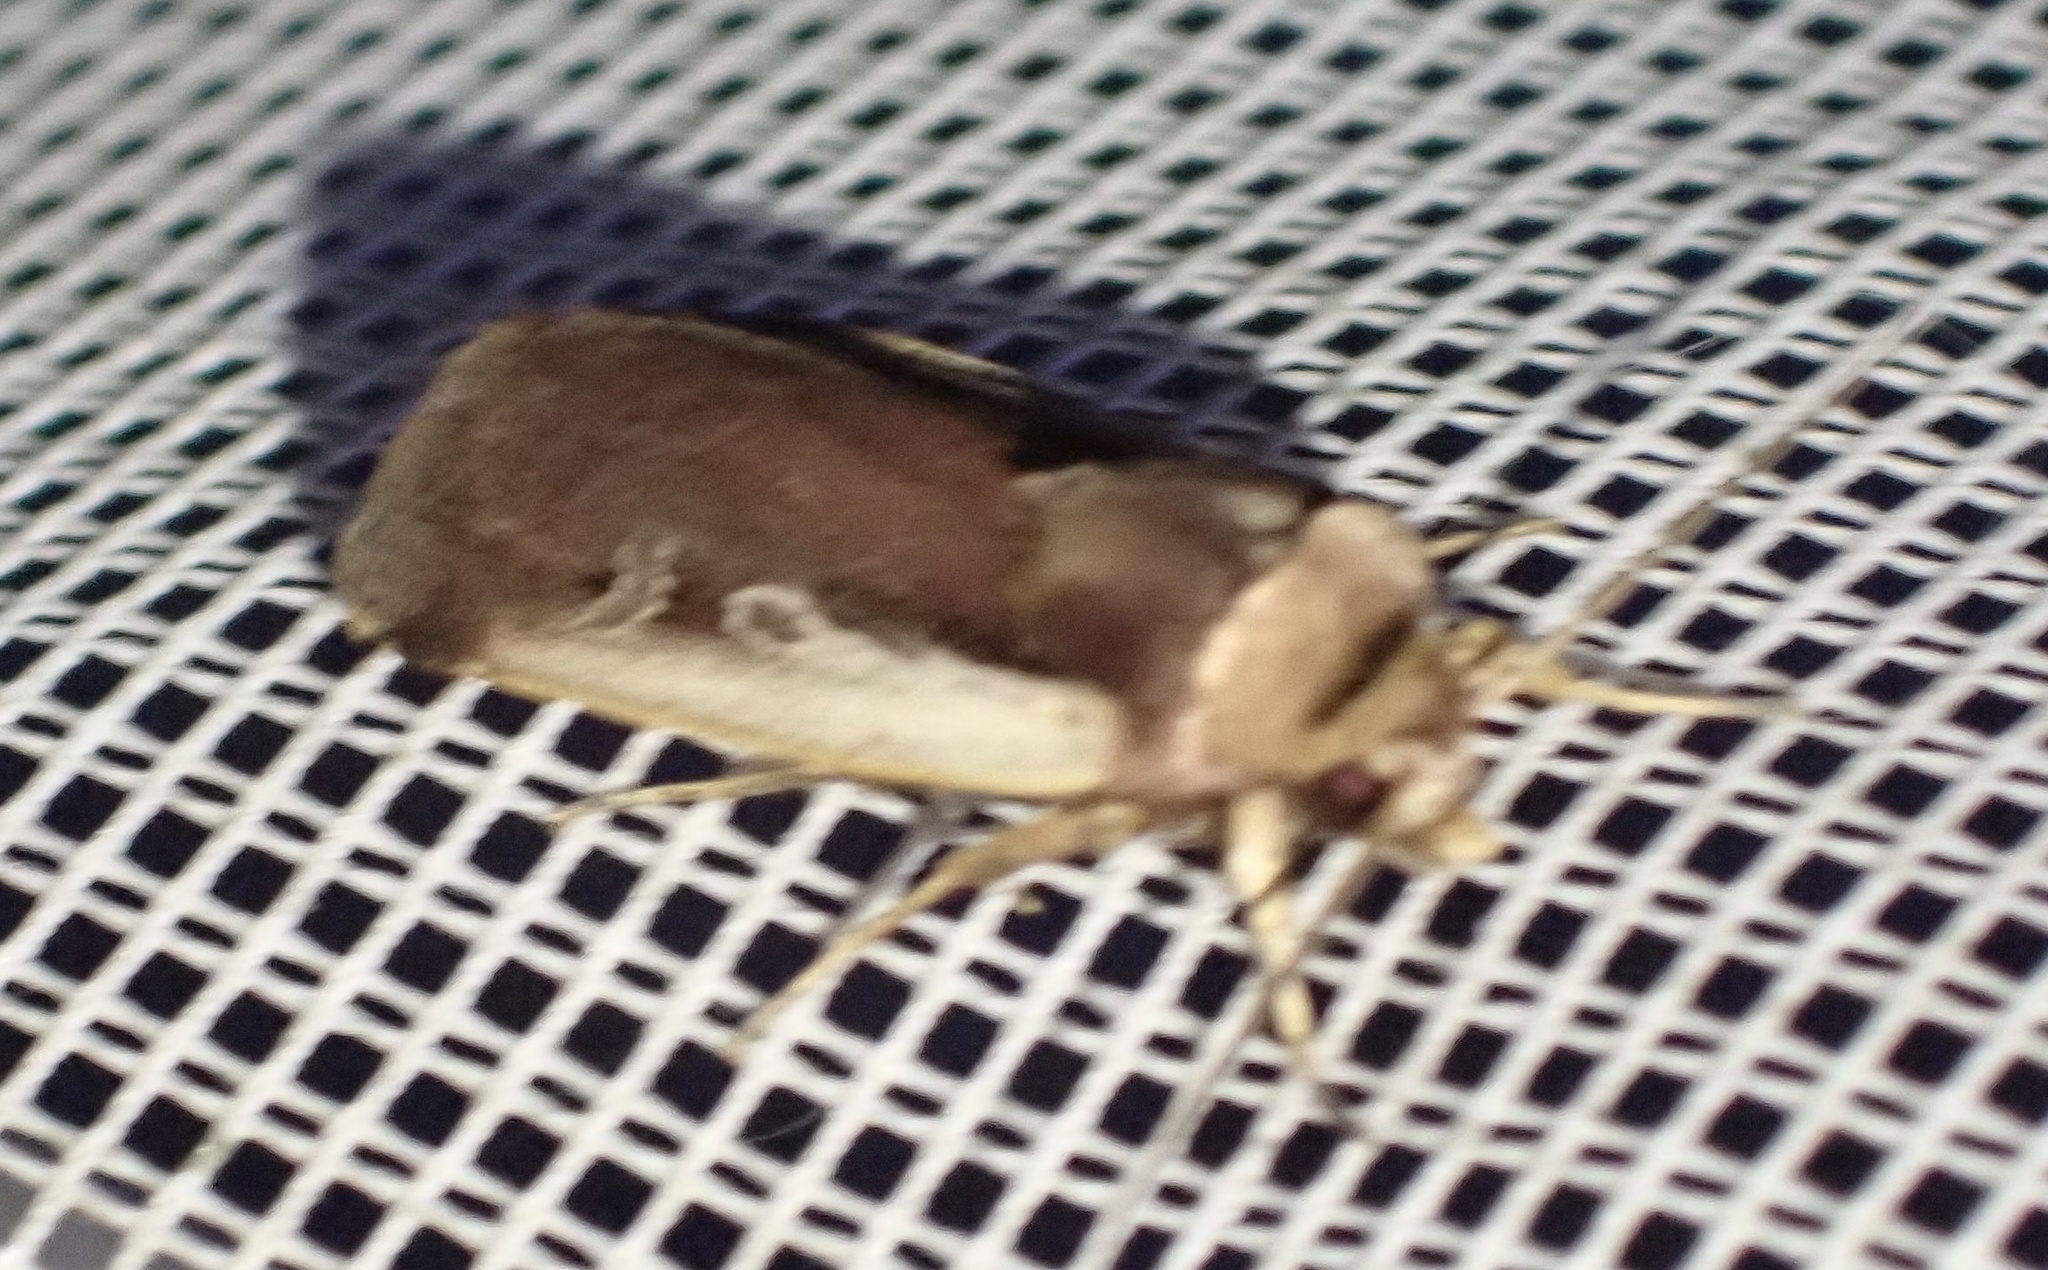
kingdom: Animalia
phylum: Arthropoda
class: Insecta
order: Lepidoptera
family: Noctuidae
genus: Ochropleura
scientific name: Ochropleura plecta
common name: Flame shoulder
